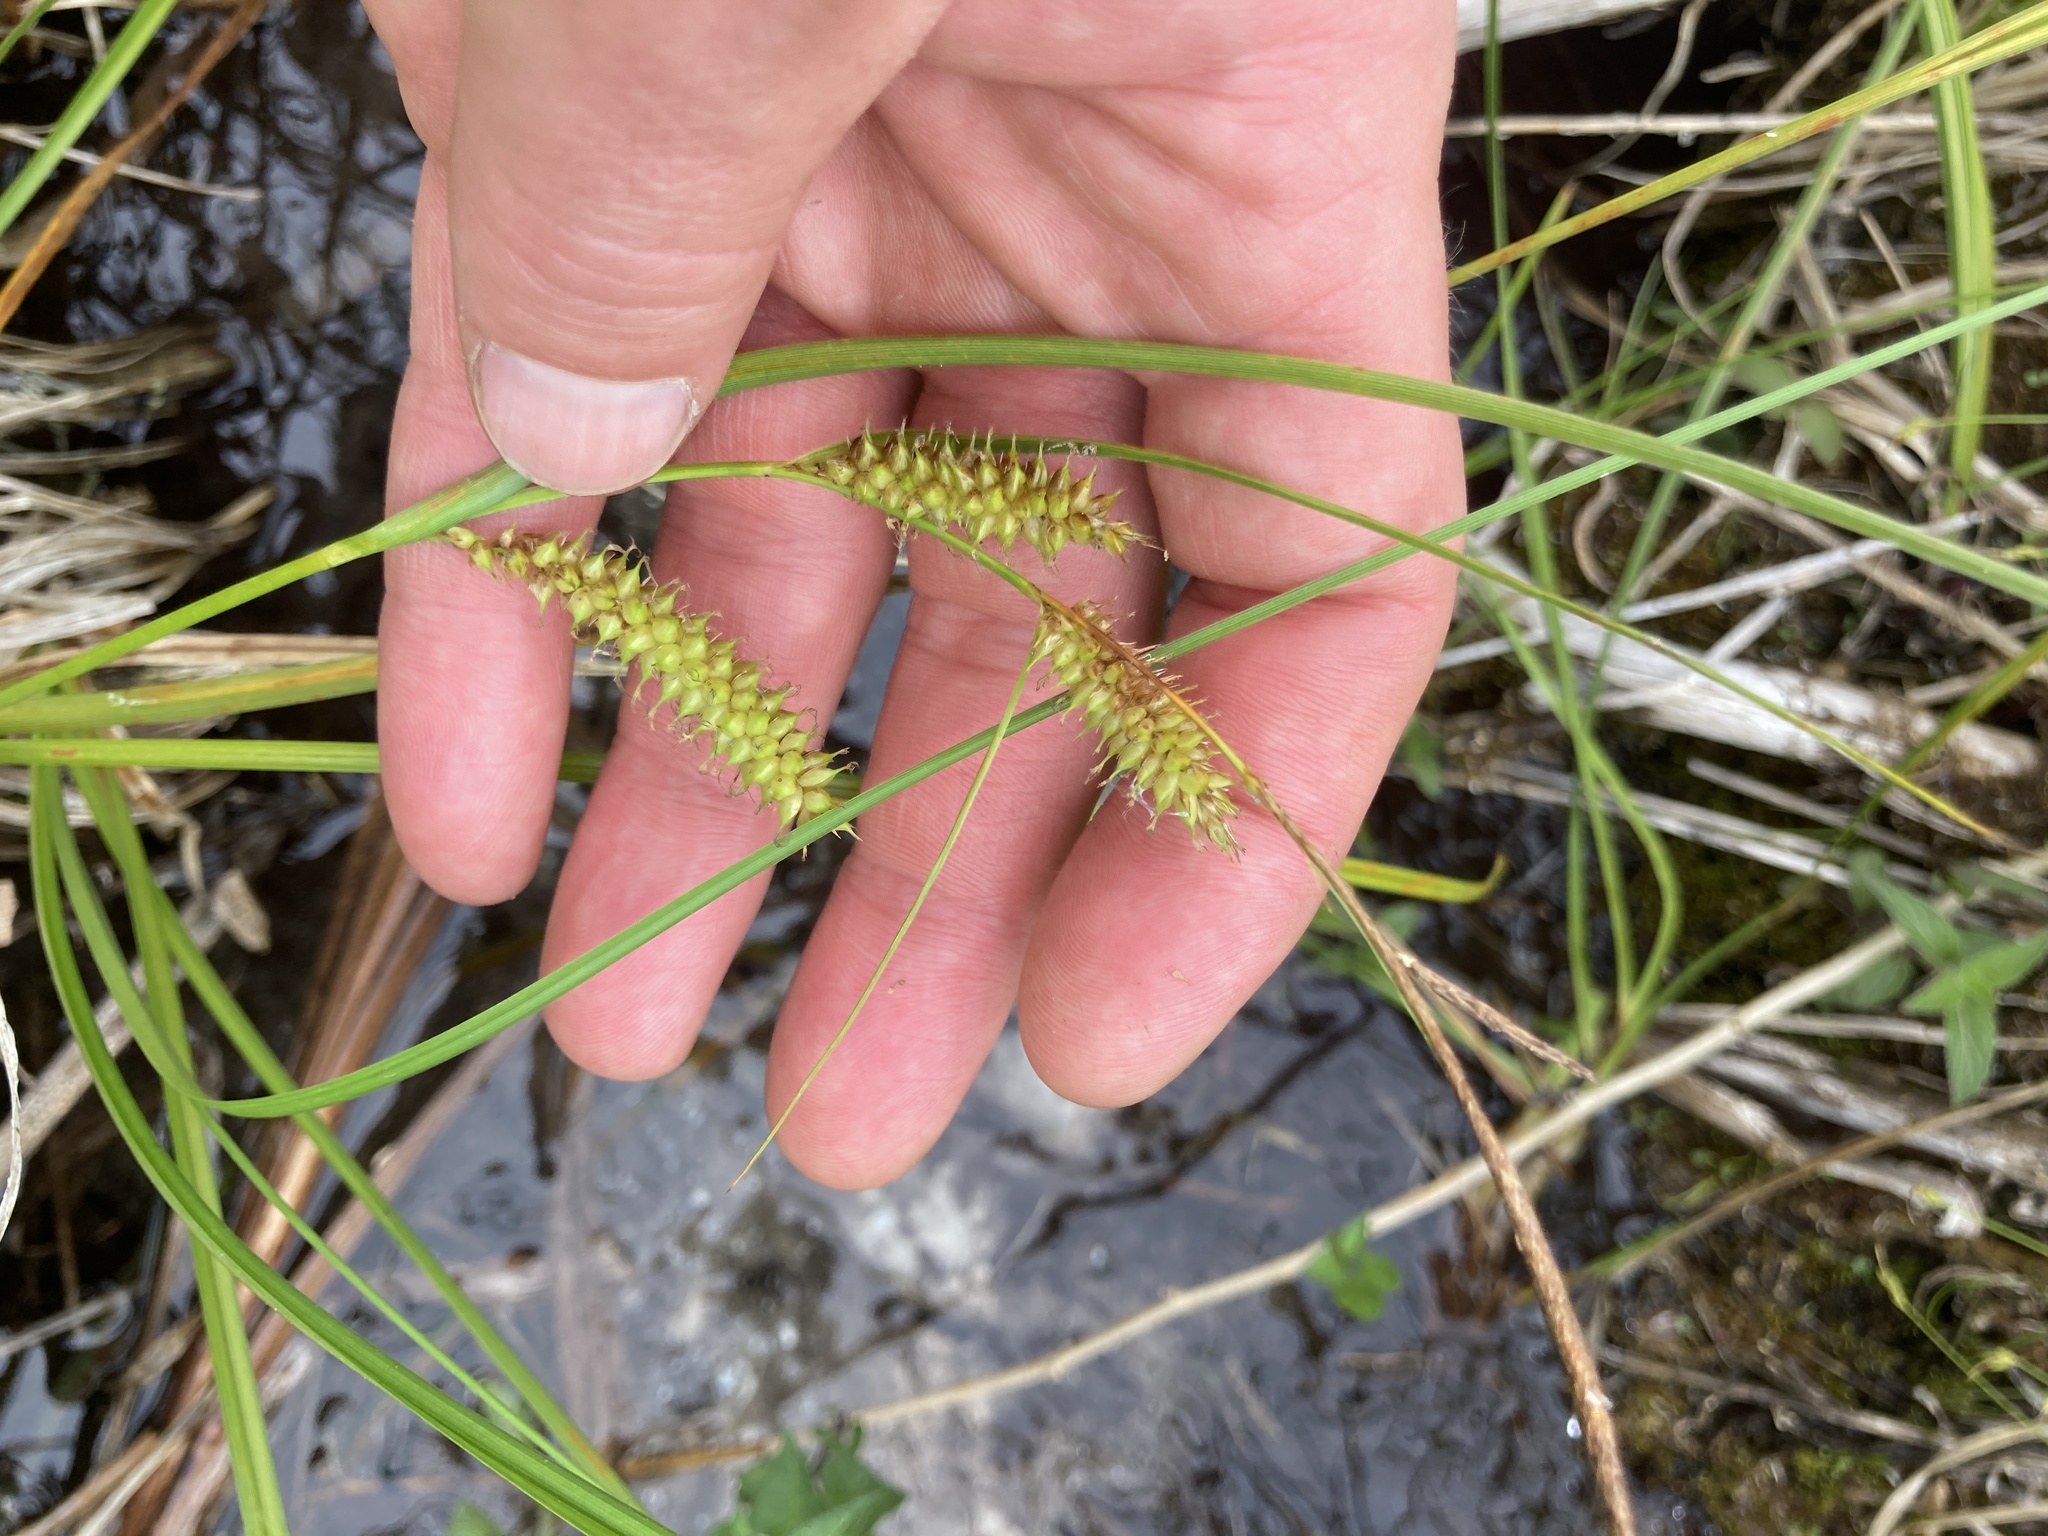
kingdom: Plantae
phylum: Tracheophyta
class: Liliopsida
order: Poales
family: Cyperaceae
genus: Carex
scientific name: Carex utriculata
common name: Beaked sedge
